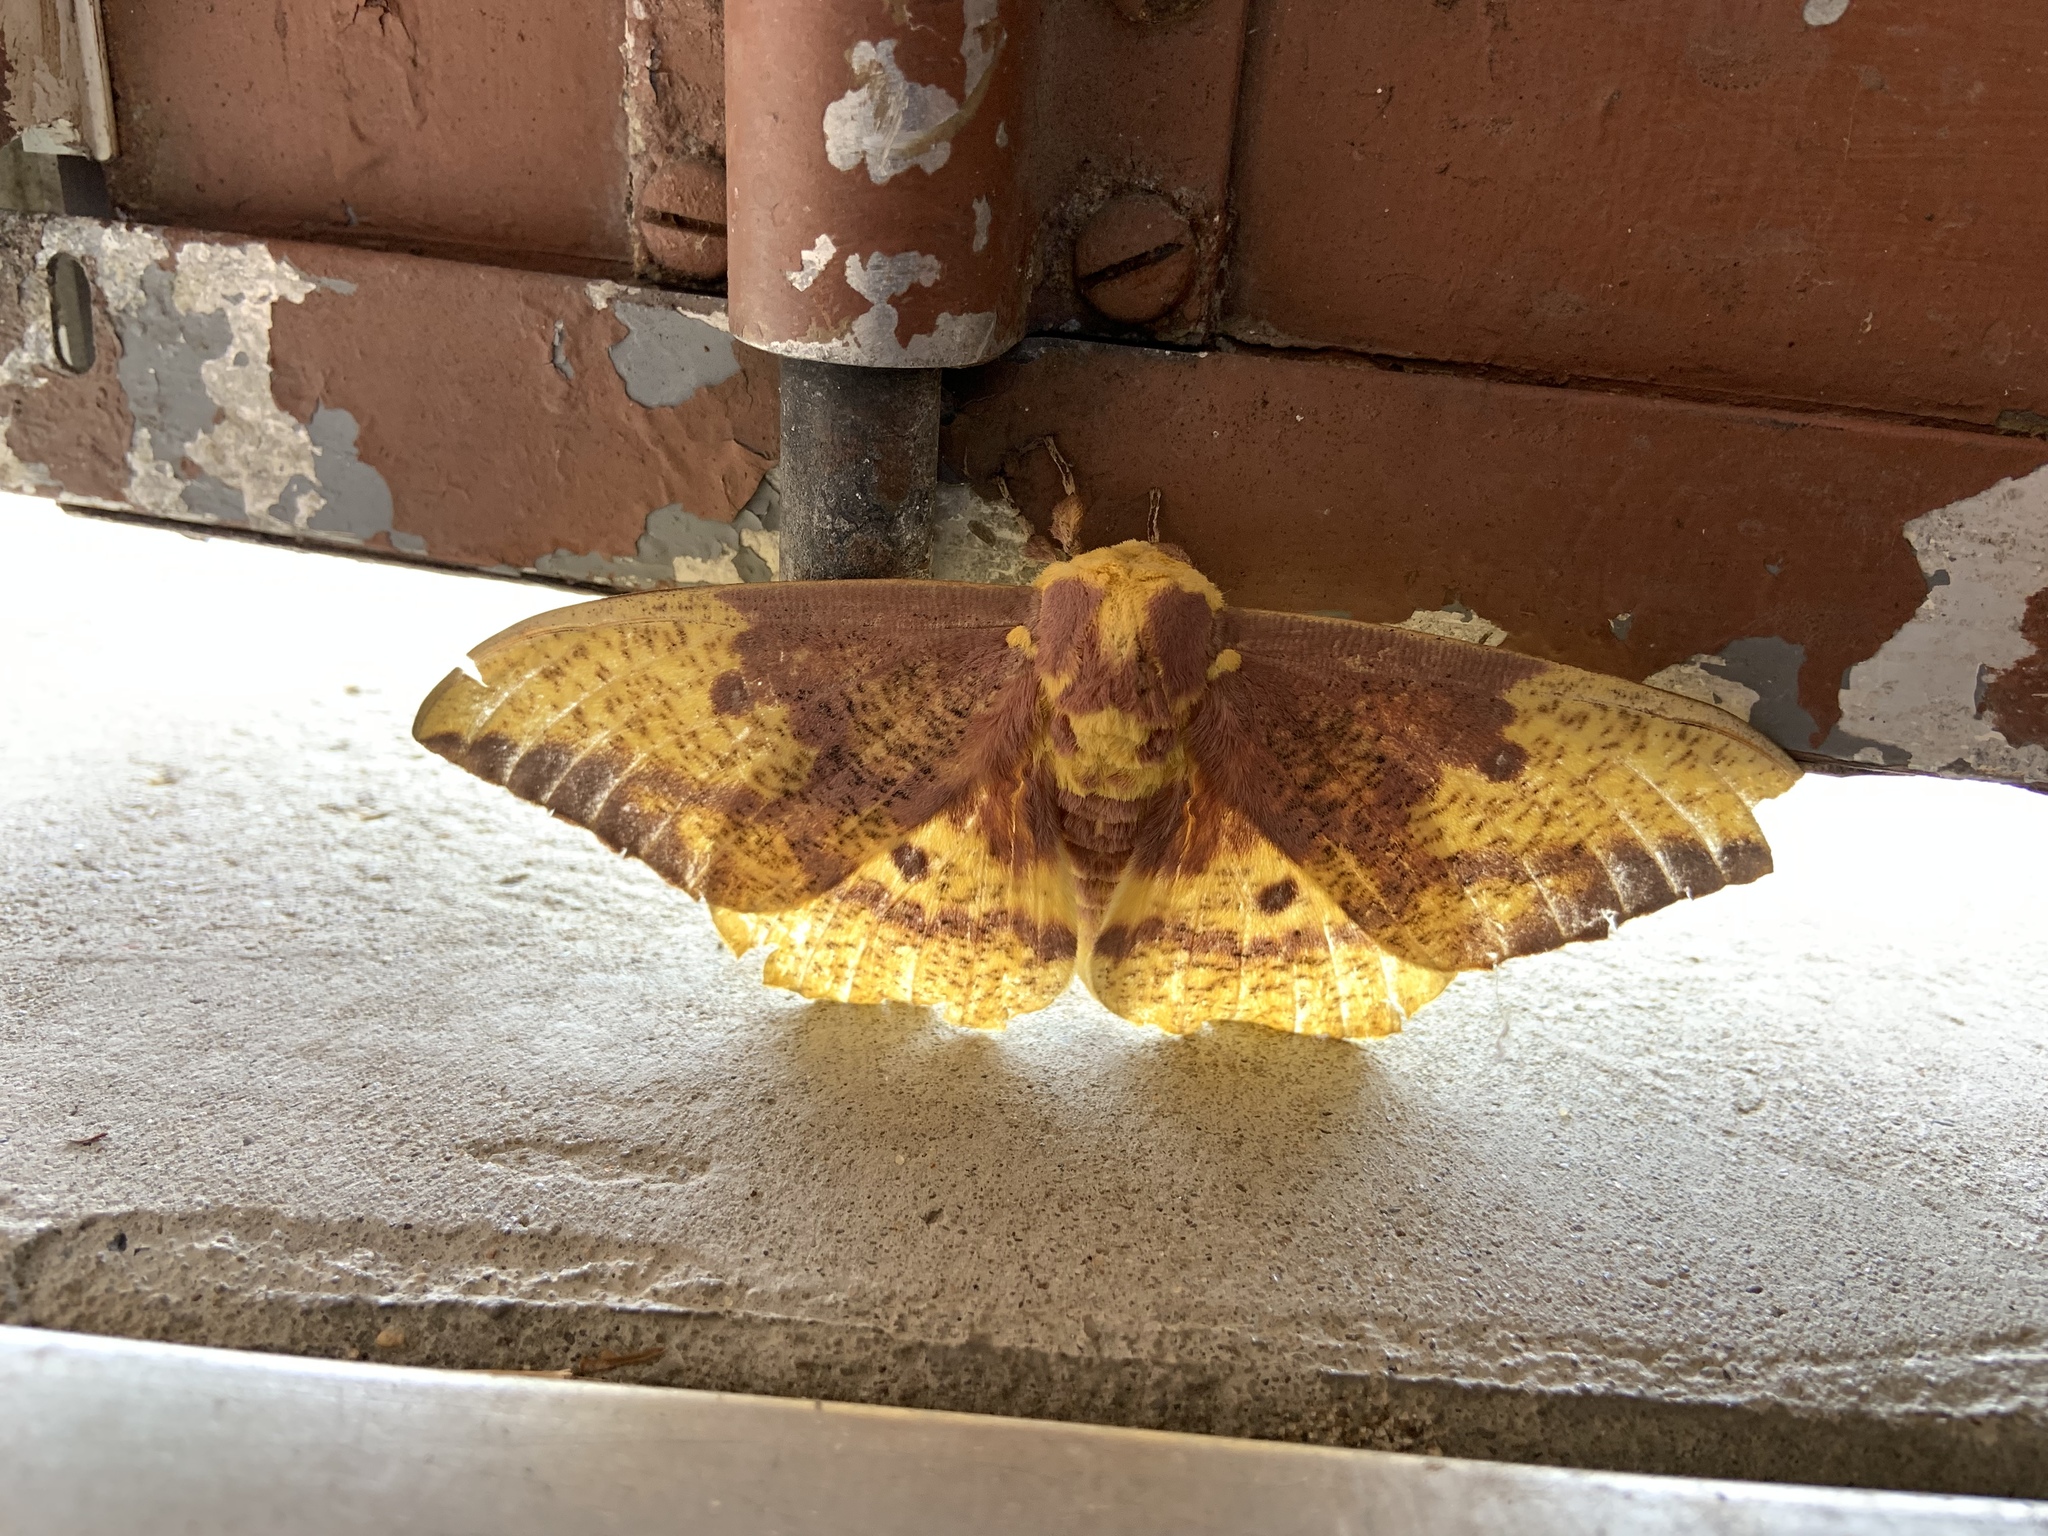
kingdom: Animalia
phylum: Arthropoda
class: Insecta
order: Lepidoptera
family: Saturniidae
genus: Eacles
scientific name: Eacles imperialis
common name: Imperial moth
